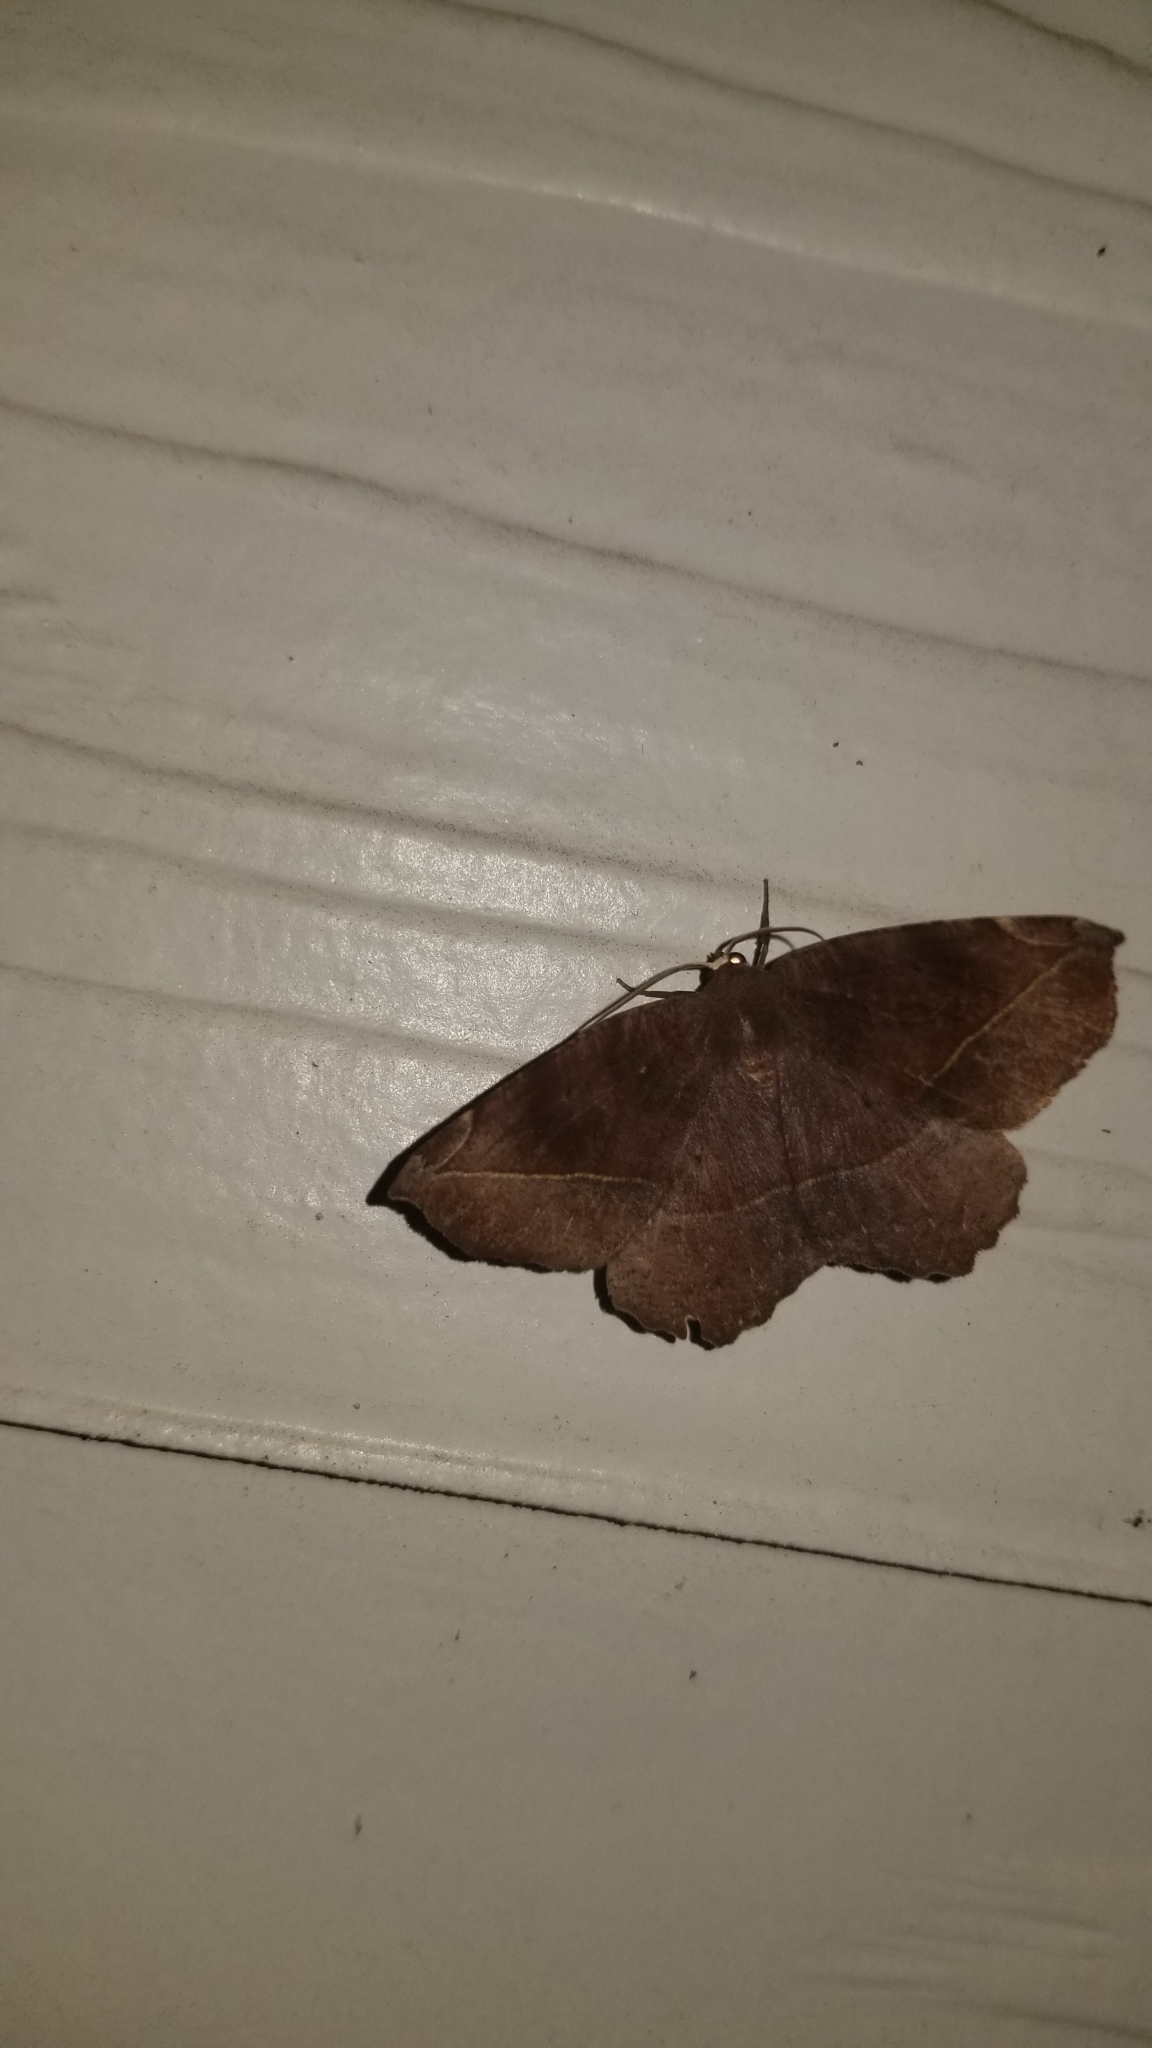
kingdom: Animalia
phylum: Arthropoda
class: Insecta
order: Lepidoptera
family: Geometridae
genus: Eutrapela
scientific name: Eutrapela clemataria
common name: Curved-toothed geometer
